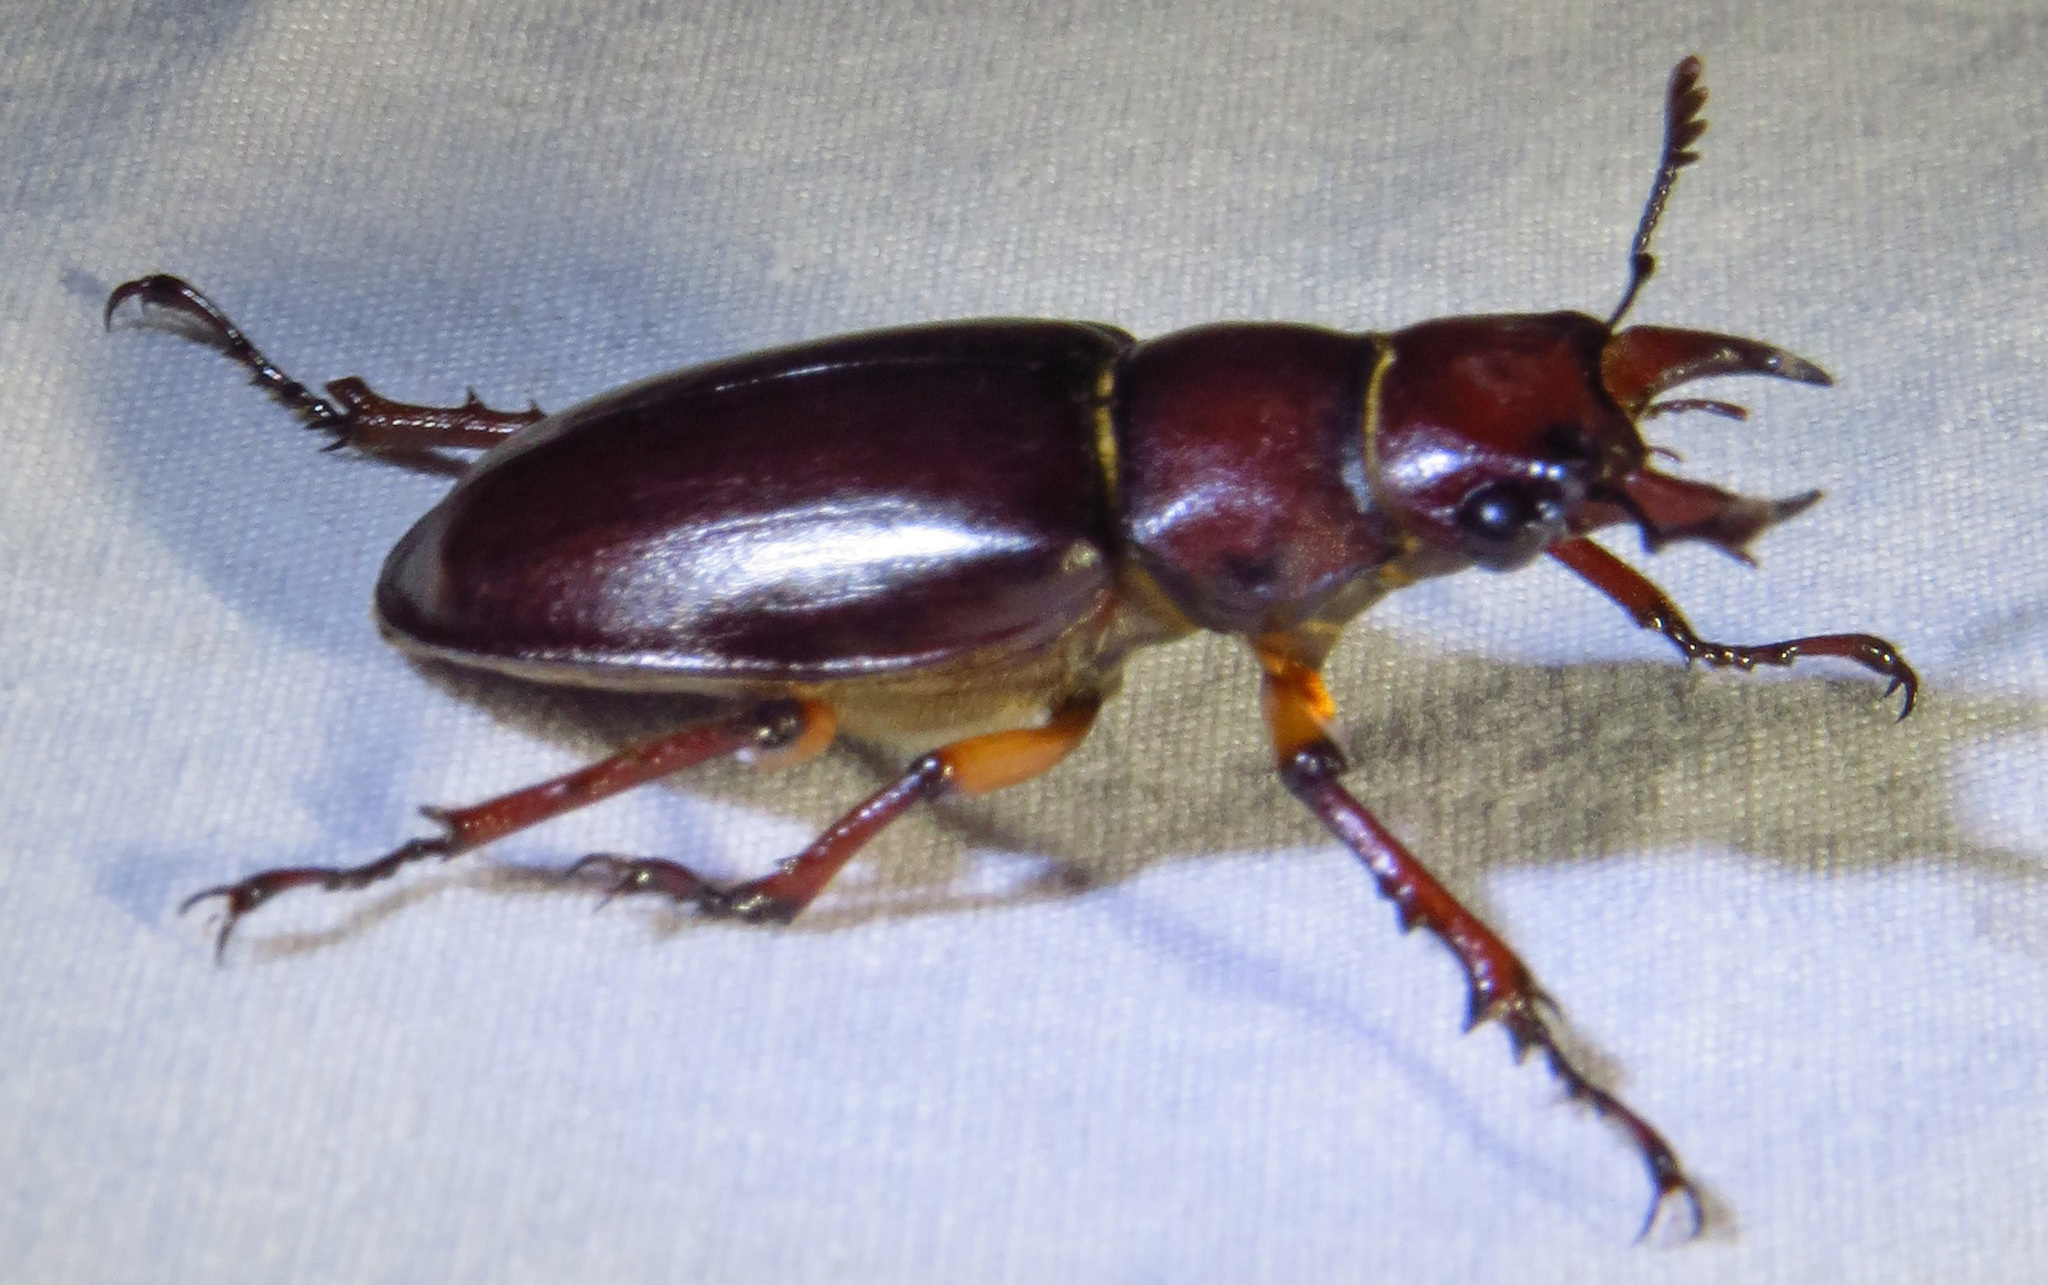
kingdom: Animalia
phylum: Arthropoda
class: Insecta
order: Coleoptera
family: Lucanidae
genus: Lucanus
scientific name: Lucanus capreolus
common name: Stag beetle
